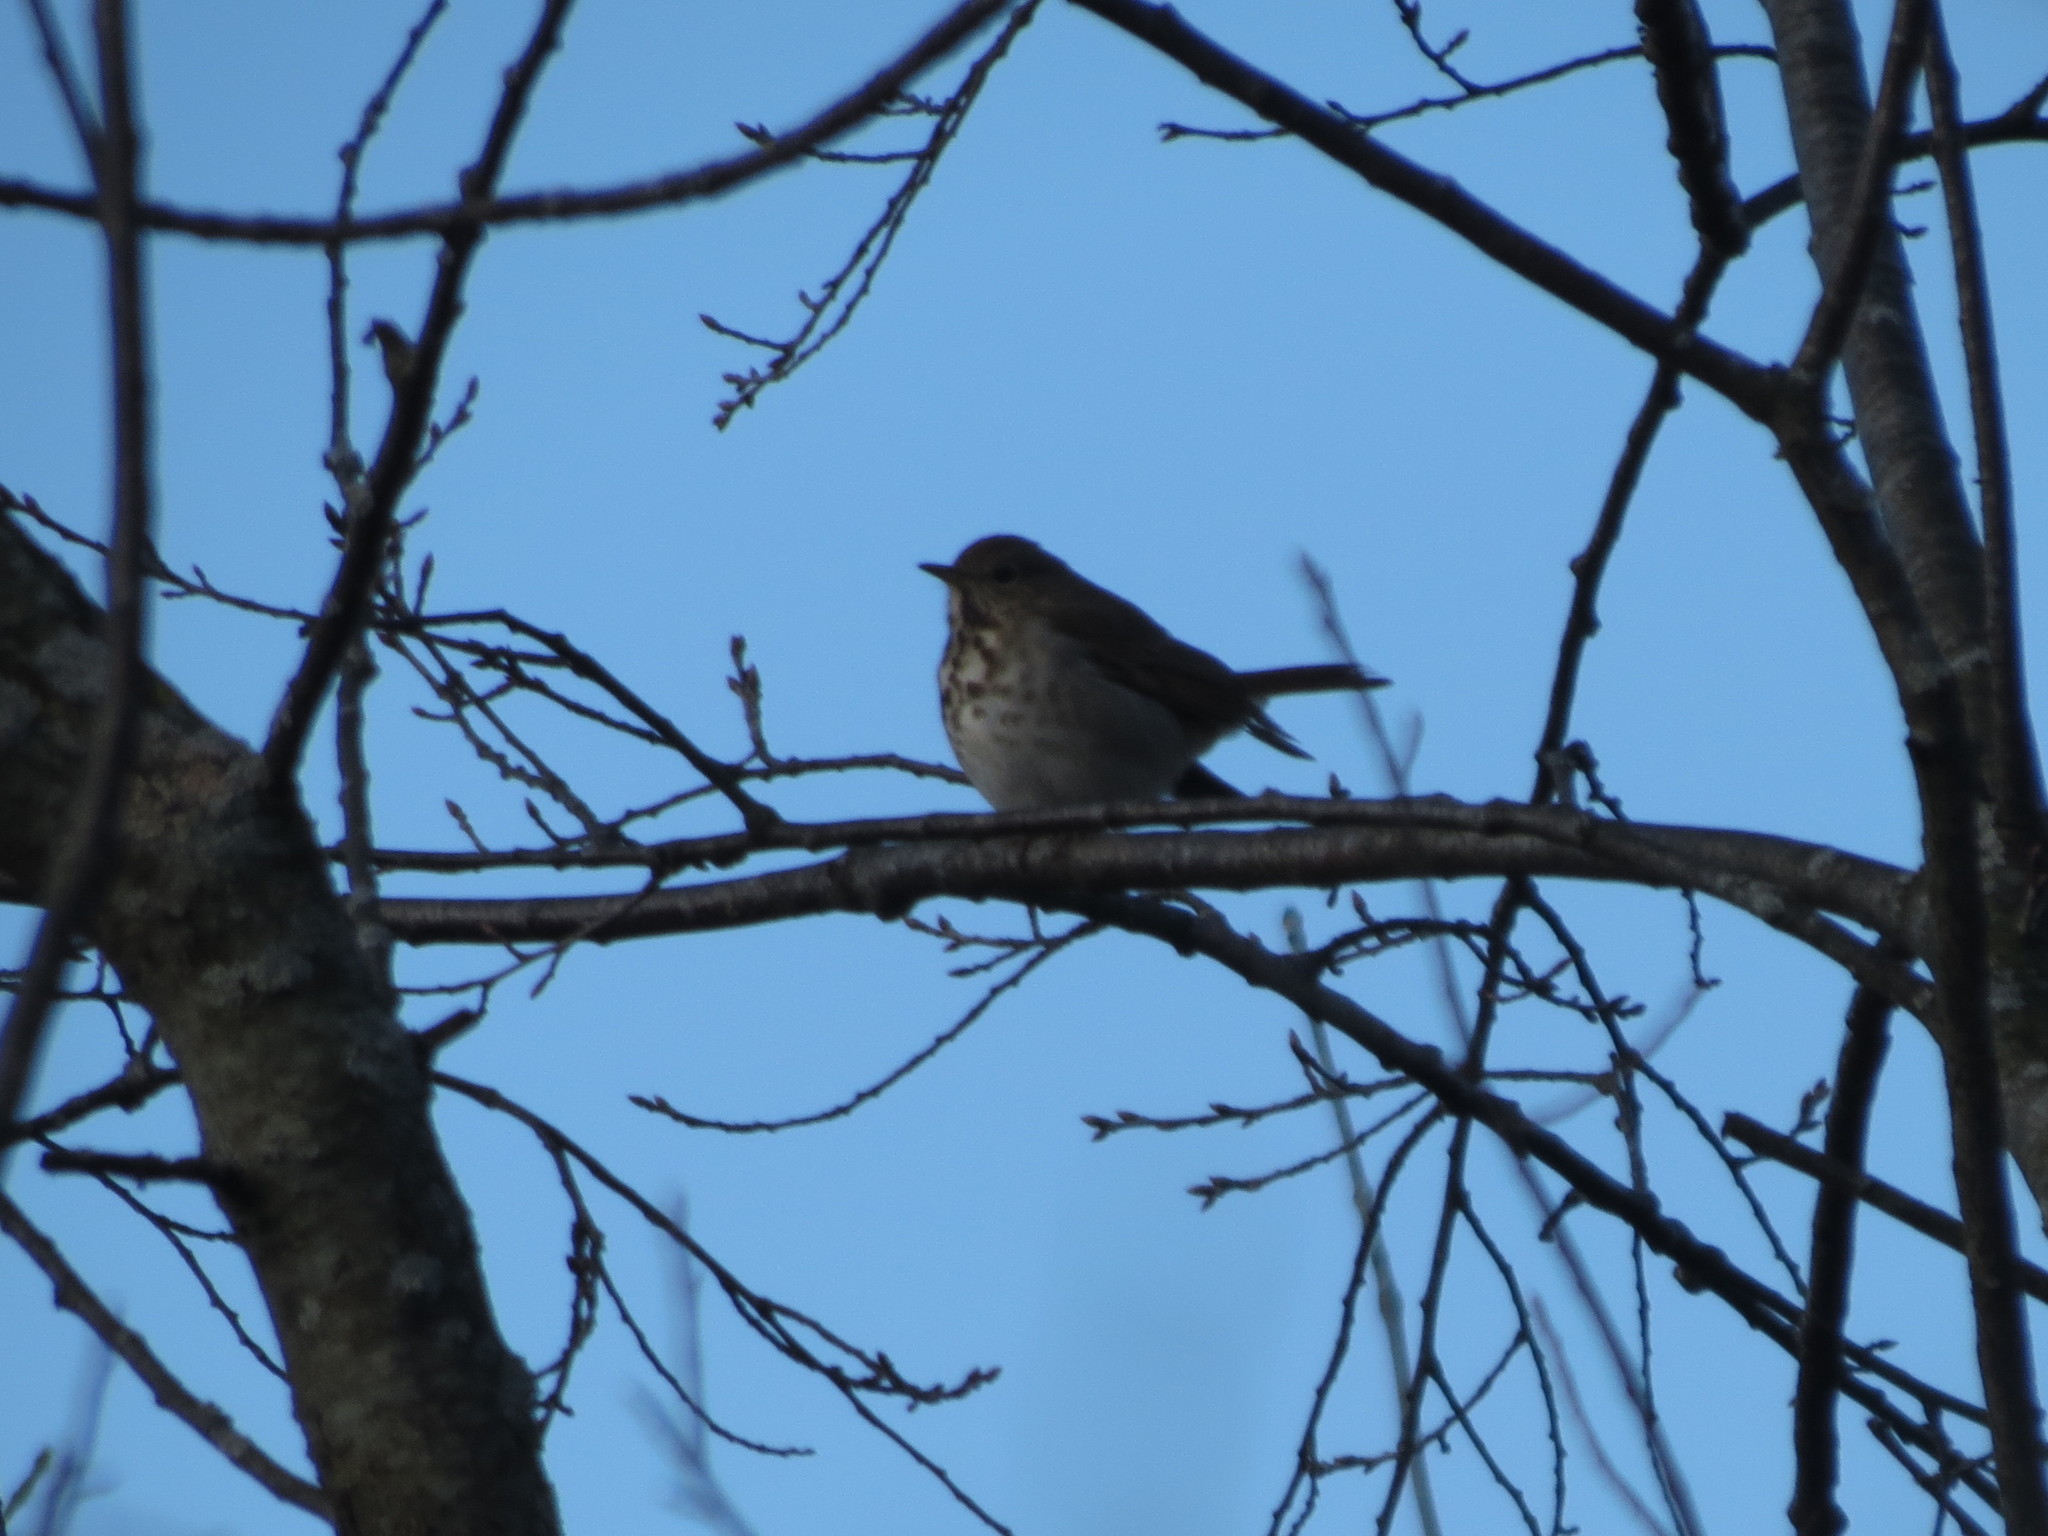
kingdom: Animalia
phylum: Chordata
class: Aves
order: Passeriformes
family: Turdidae
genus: Catharus
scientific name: Catharus guttatus
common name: Hermit thrush
